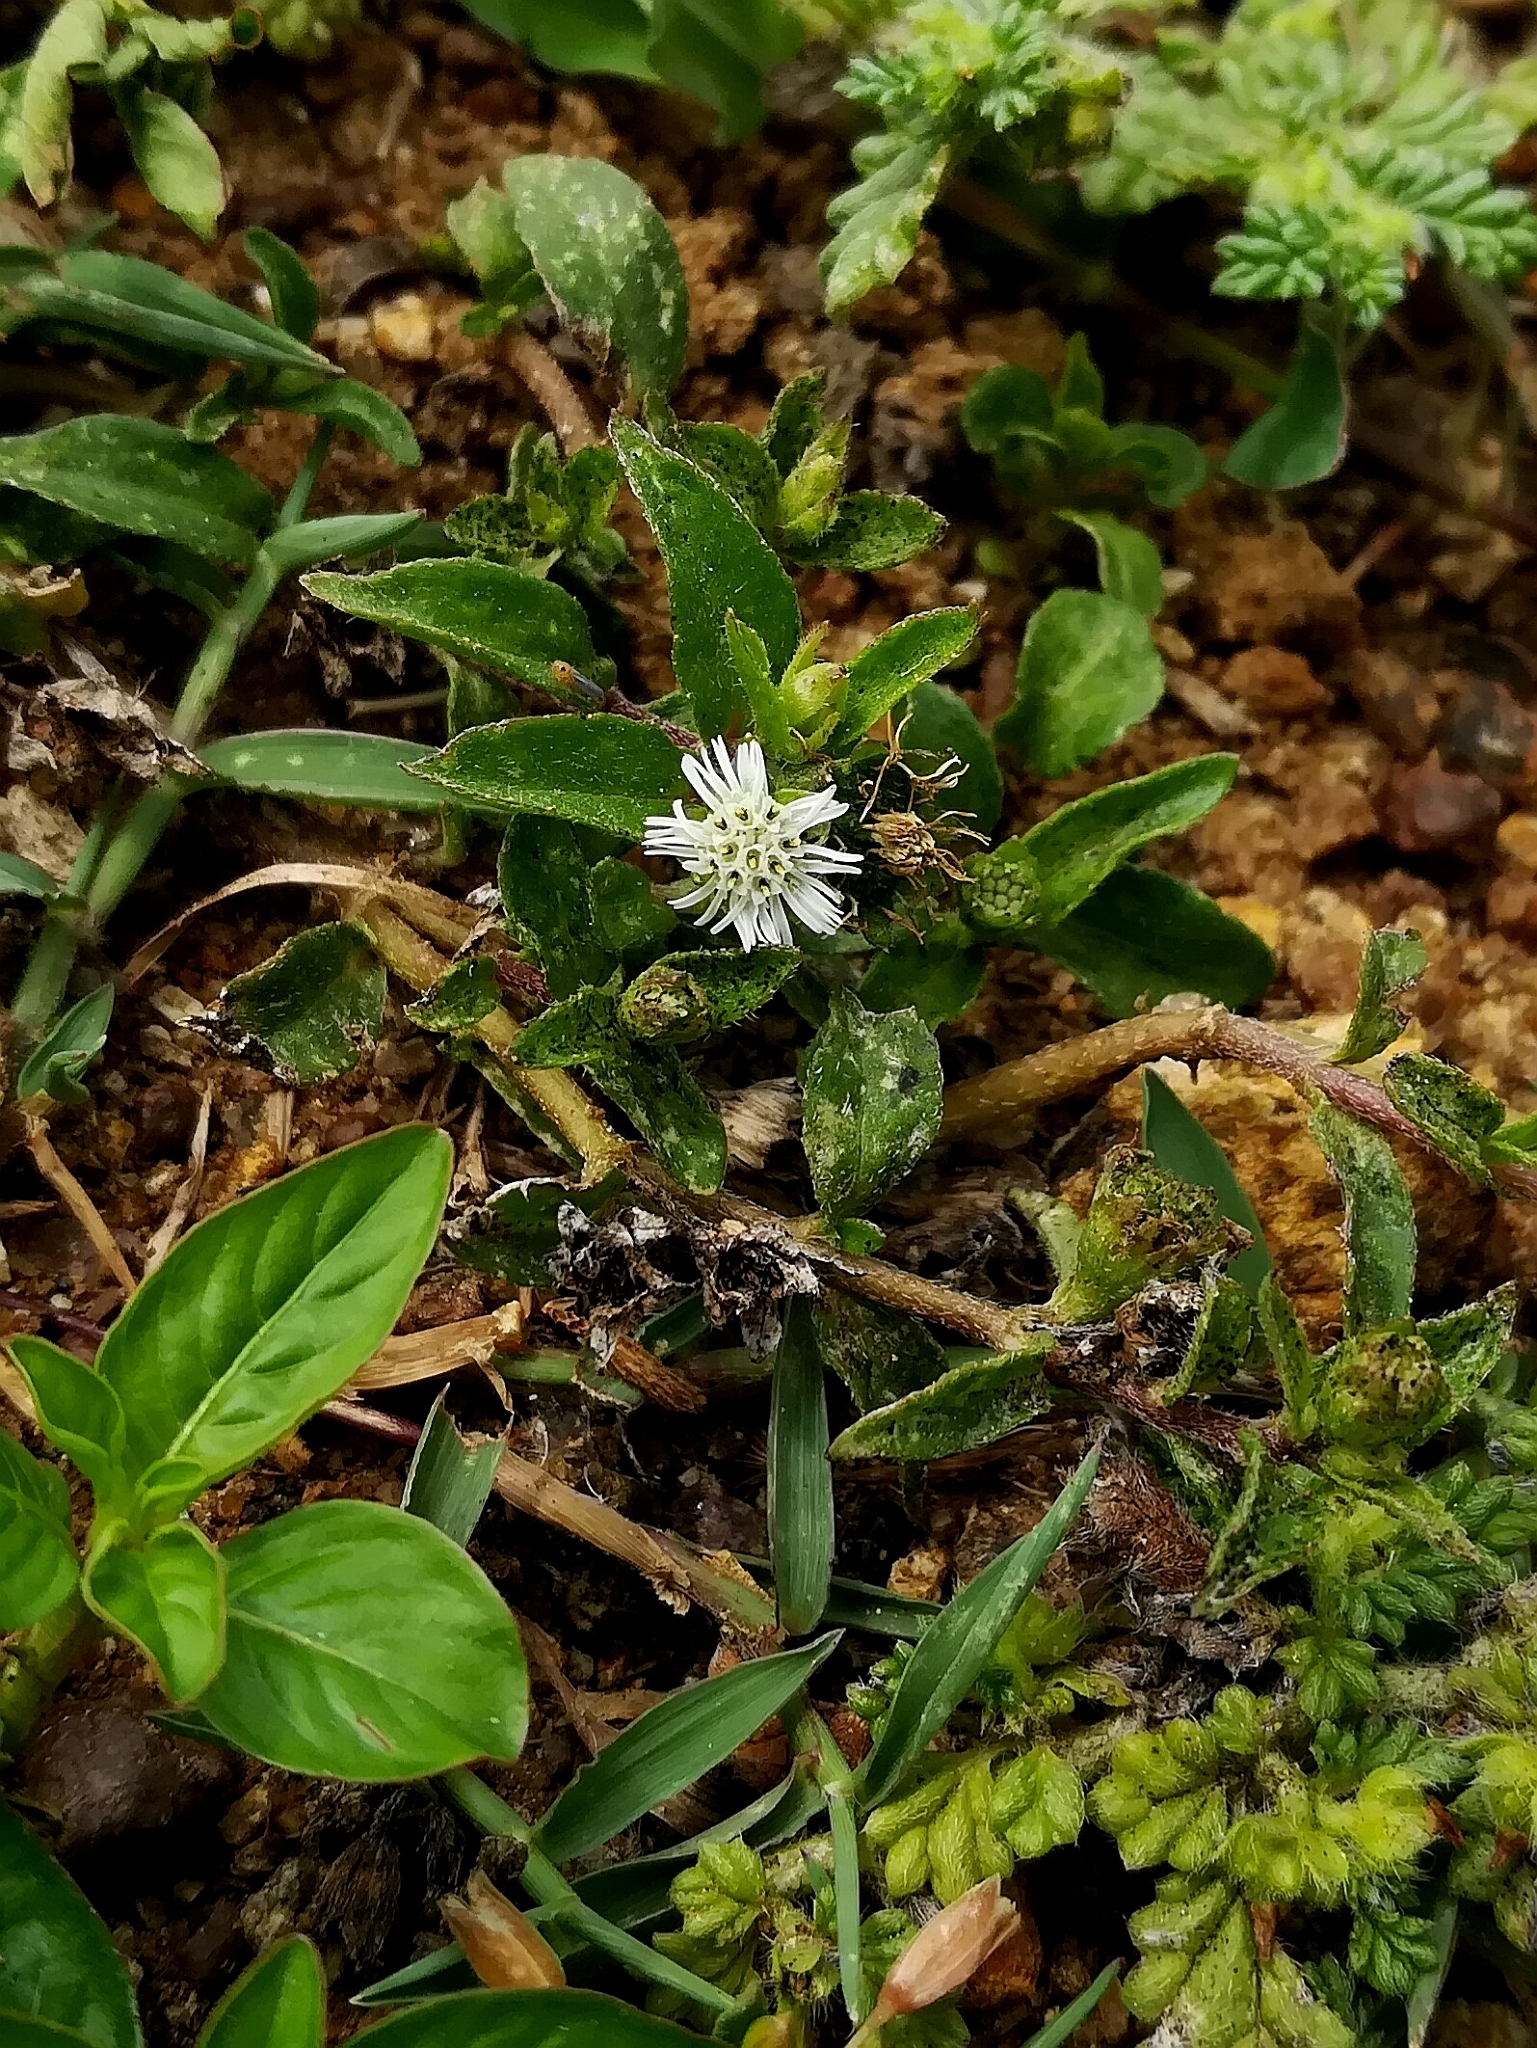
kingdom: Plantae
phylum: Tracheophyta
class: Magnoliopsida
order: Asterales
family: Asteraceae
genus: Eclipta
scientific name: Eclipta prostrata
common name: False daisy
